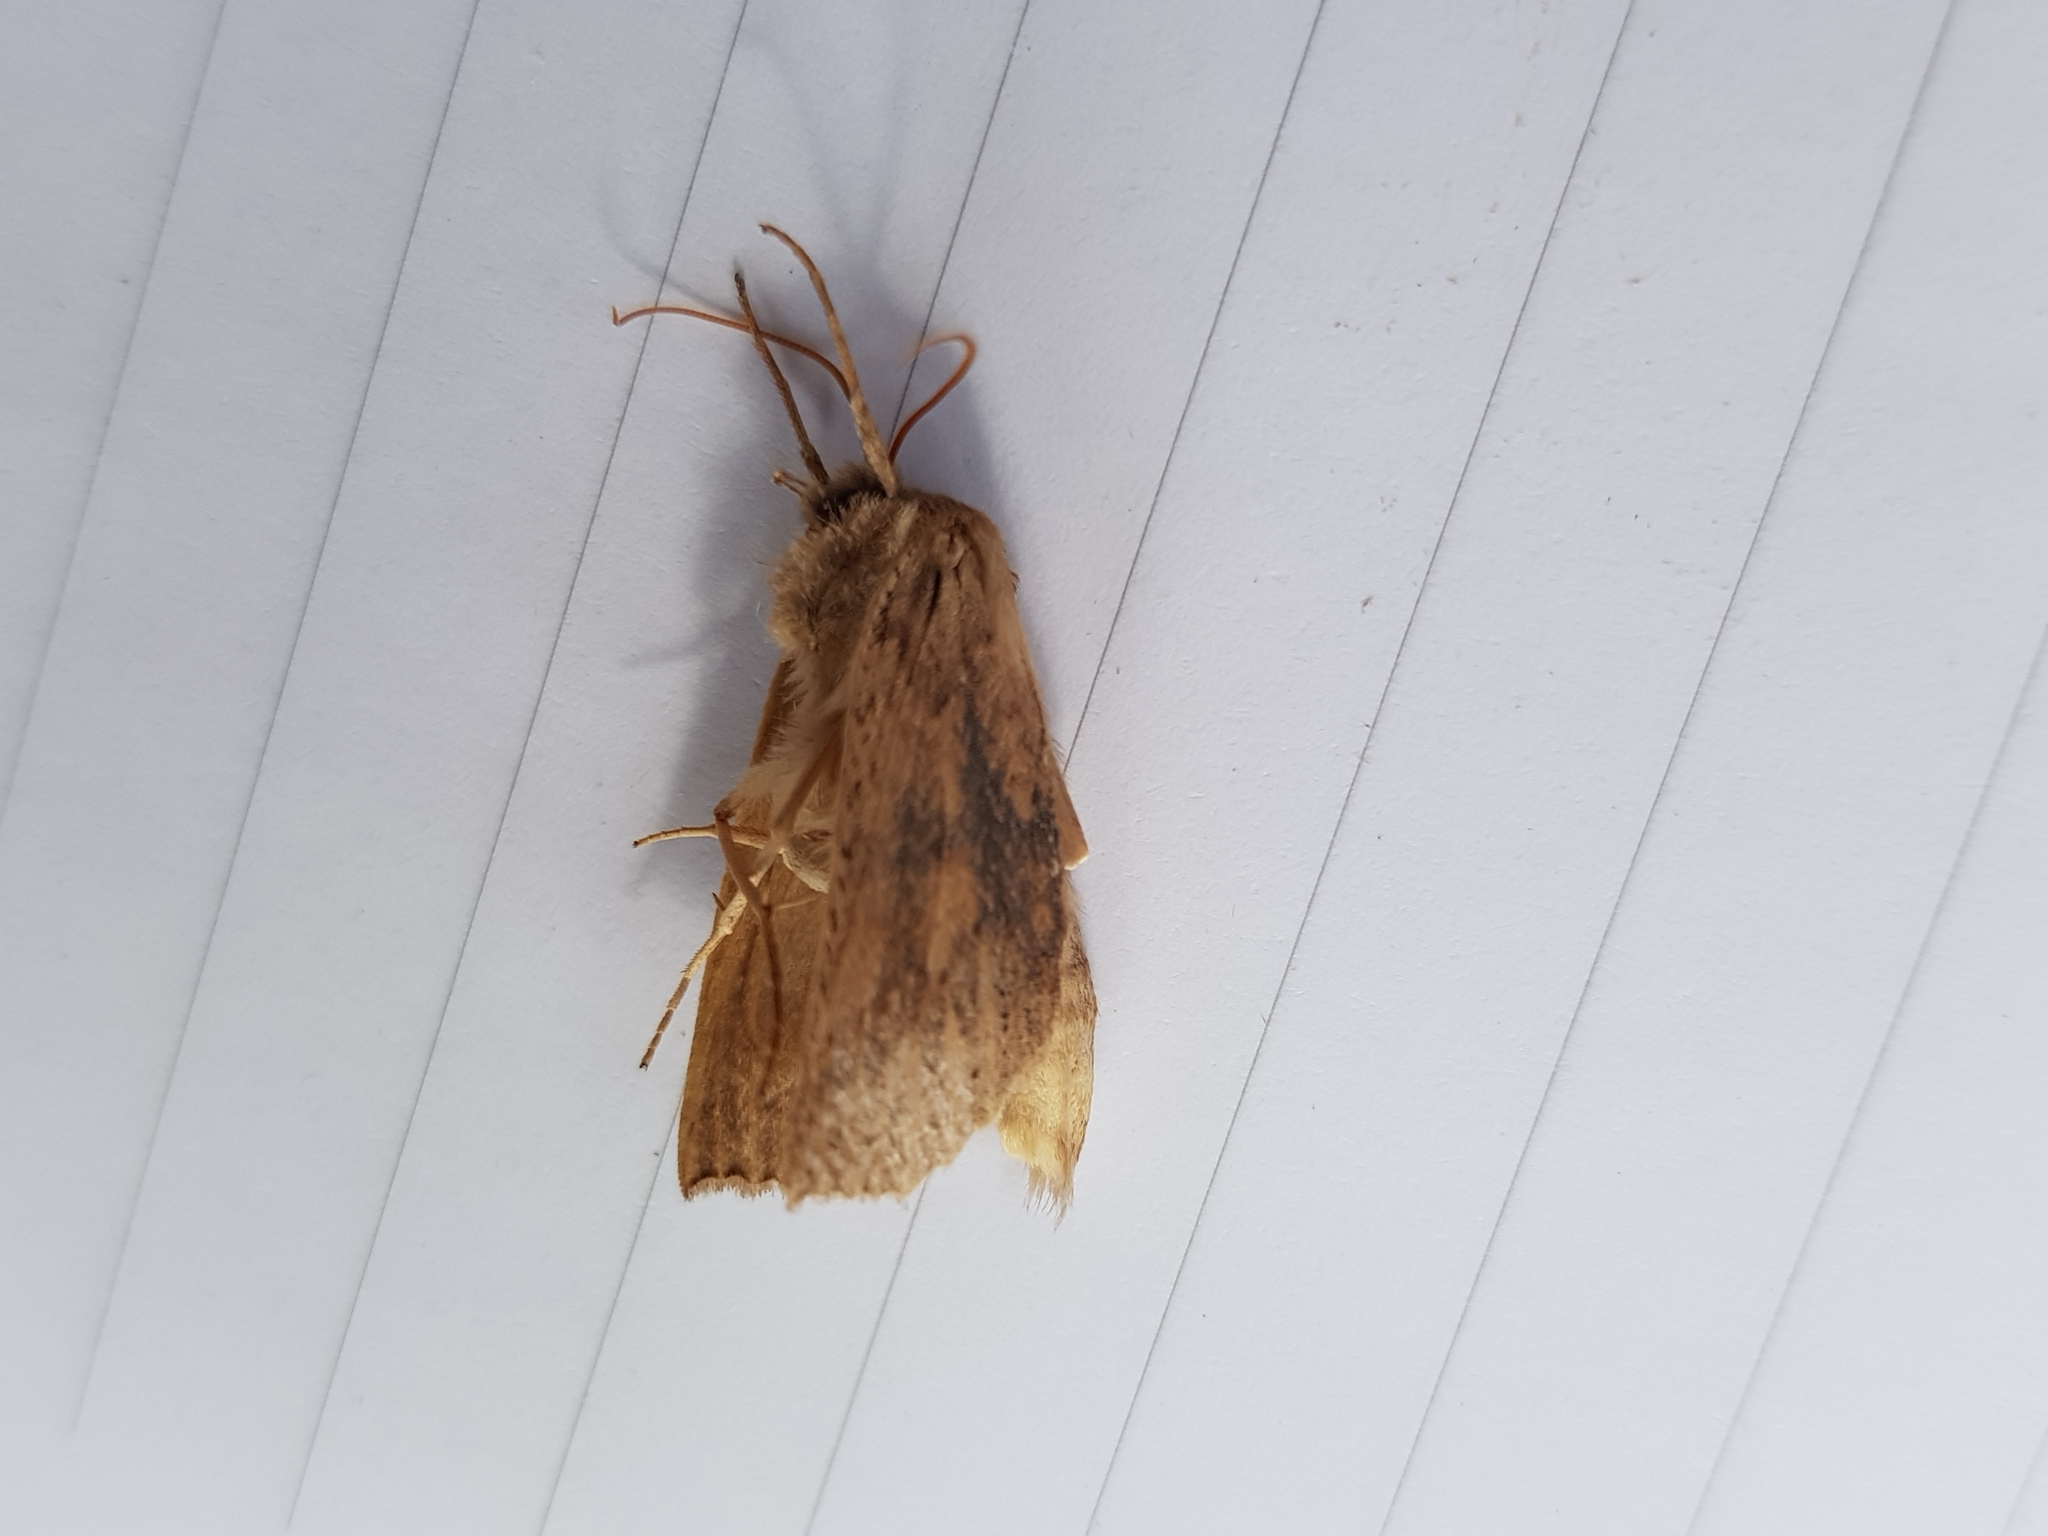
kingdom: Animalia
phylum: Arthropoda
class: Insecta
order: Lepidoptera
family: Geometridae
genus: Declana
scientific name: Declana leptomera
